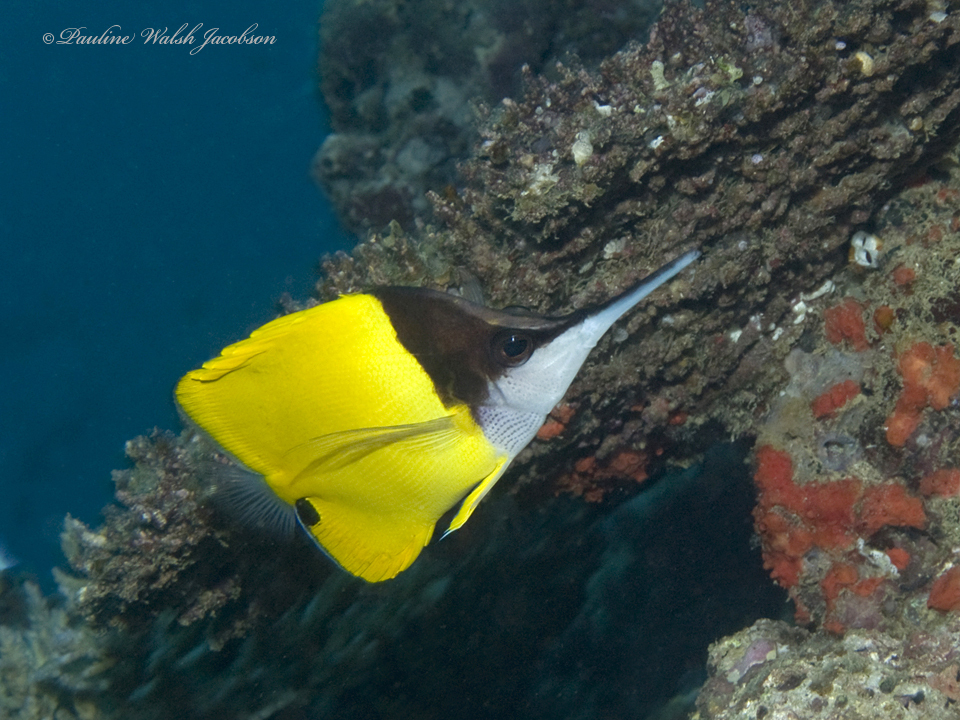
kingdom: Animalia
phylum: Chordata
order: Perciformes
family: Chaetodontidae
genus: Forcipiger
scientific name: Forcipiger longirostris
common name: Longnose butterflyfish
